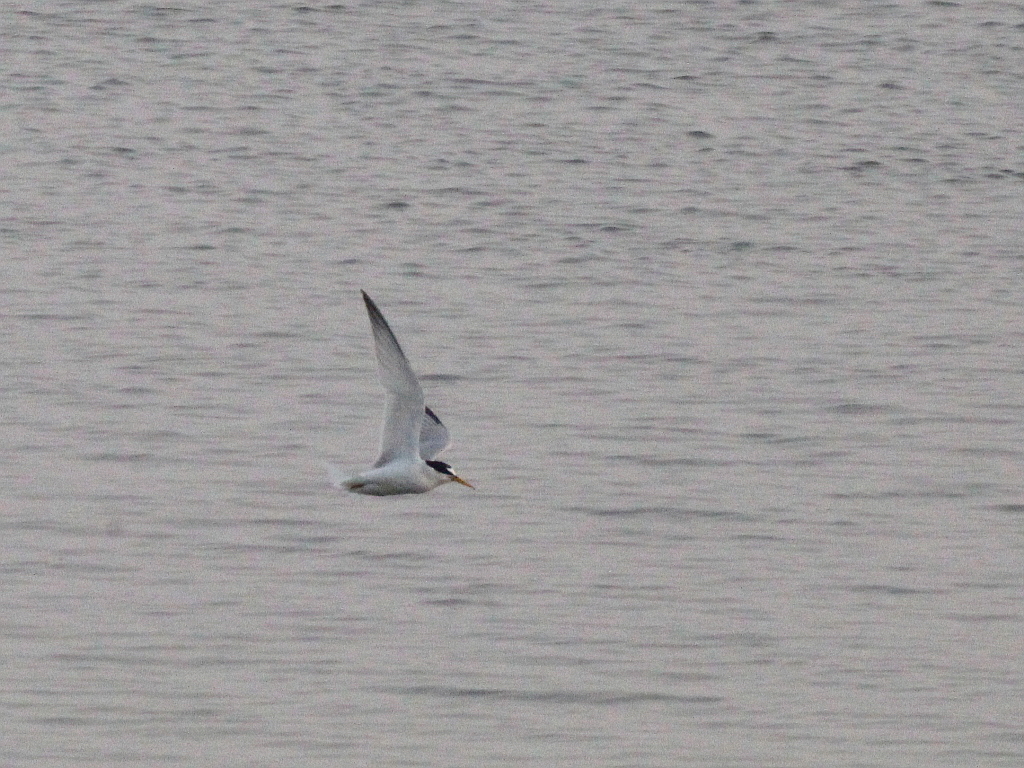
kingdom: Animalia
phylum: Chordata
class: Aves
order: Charadriiformes
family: Laridae
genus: Sternula
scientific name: Sternula albifrons
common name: Little tern
